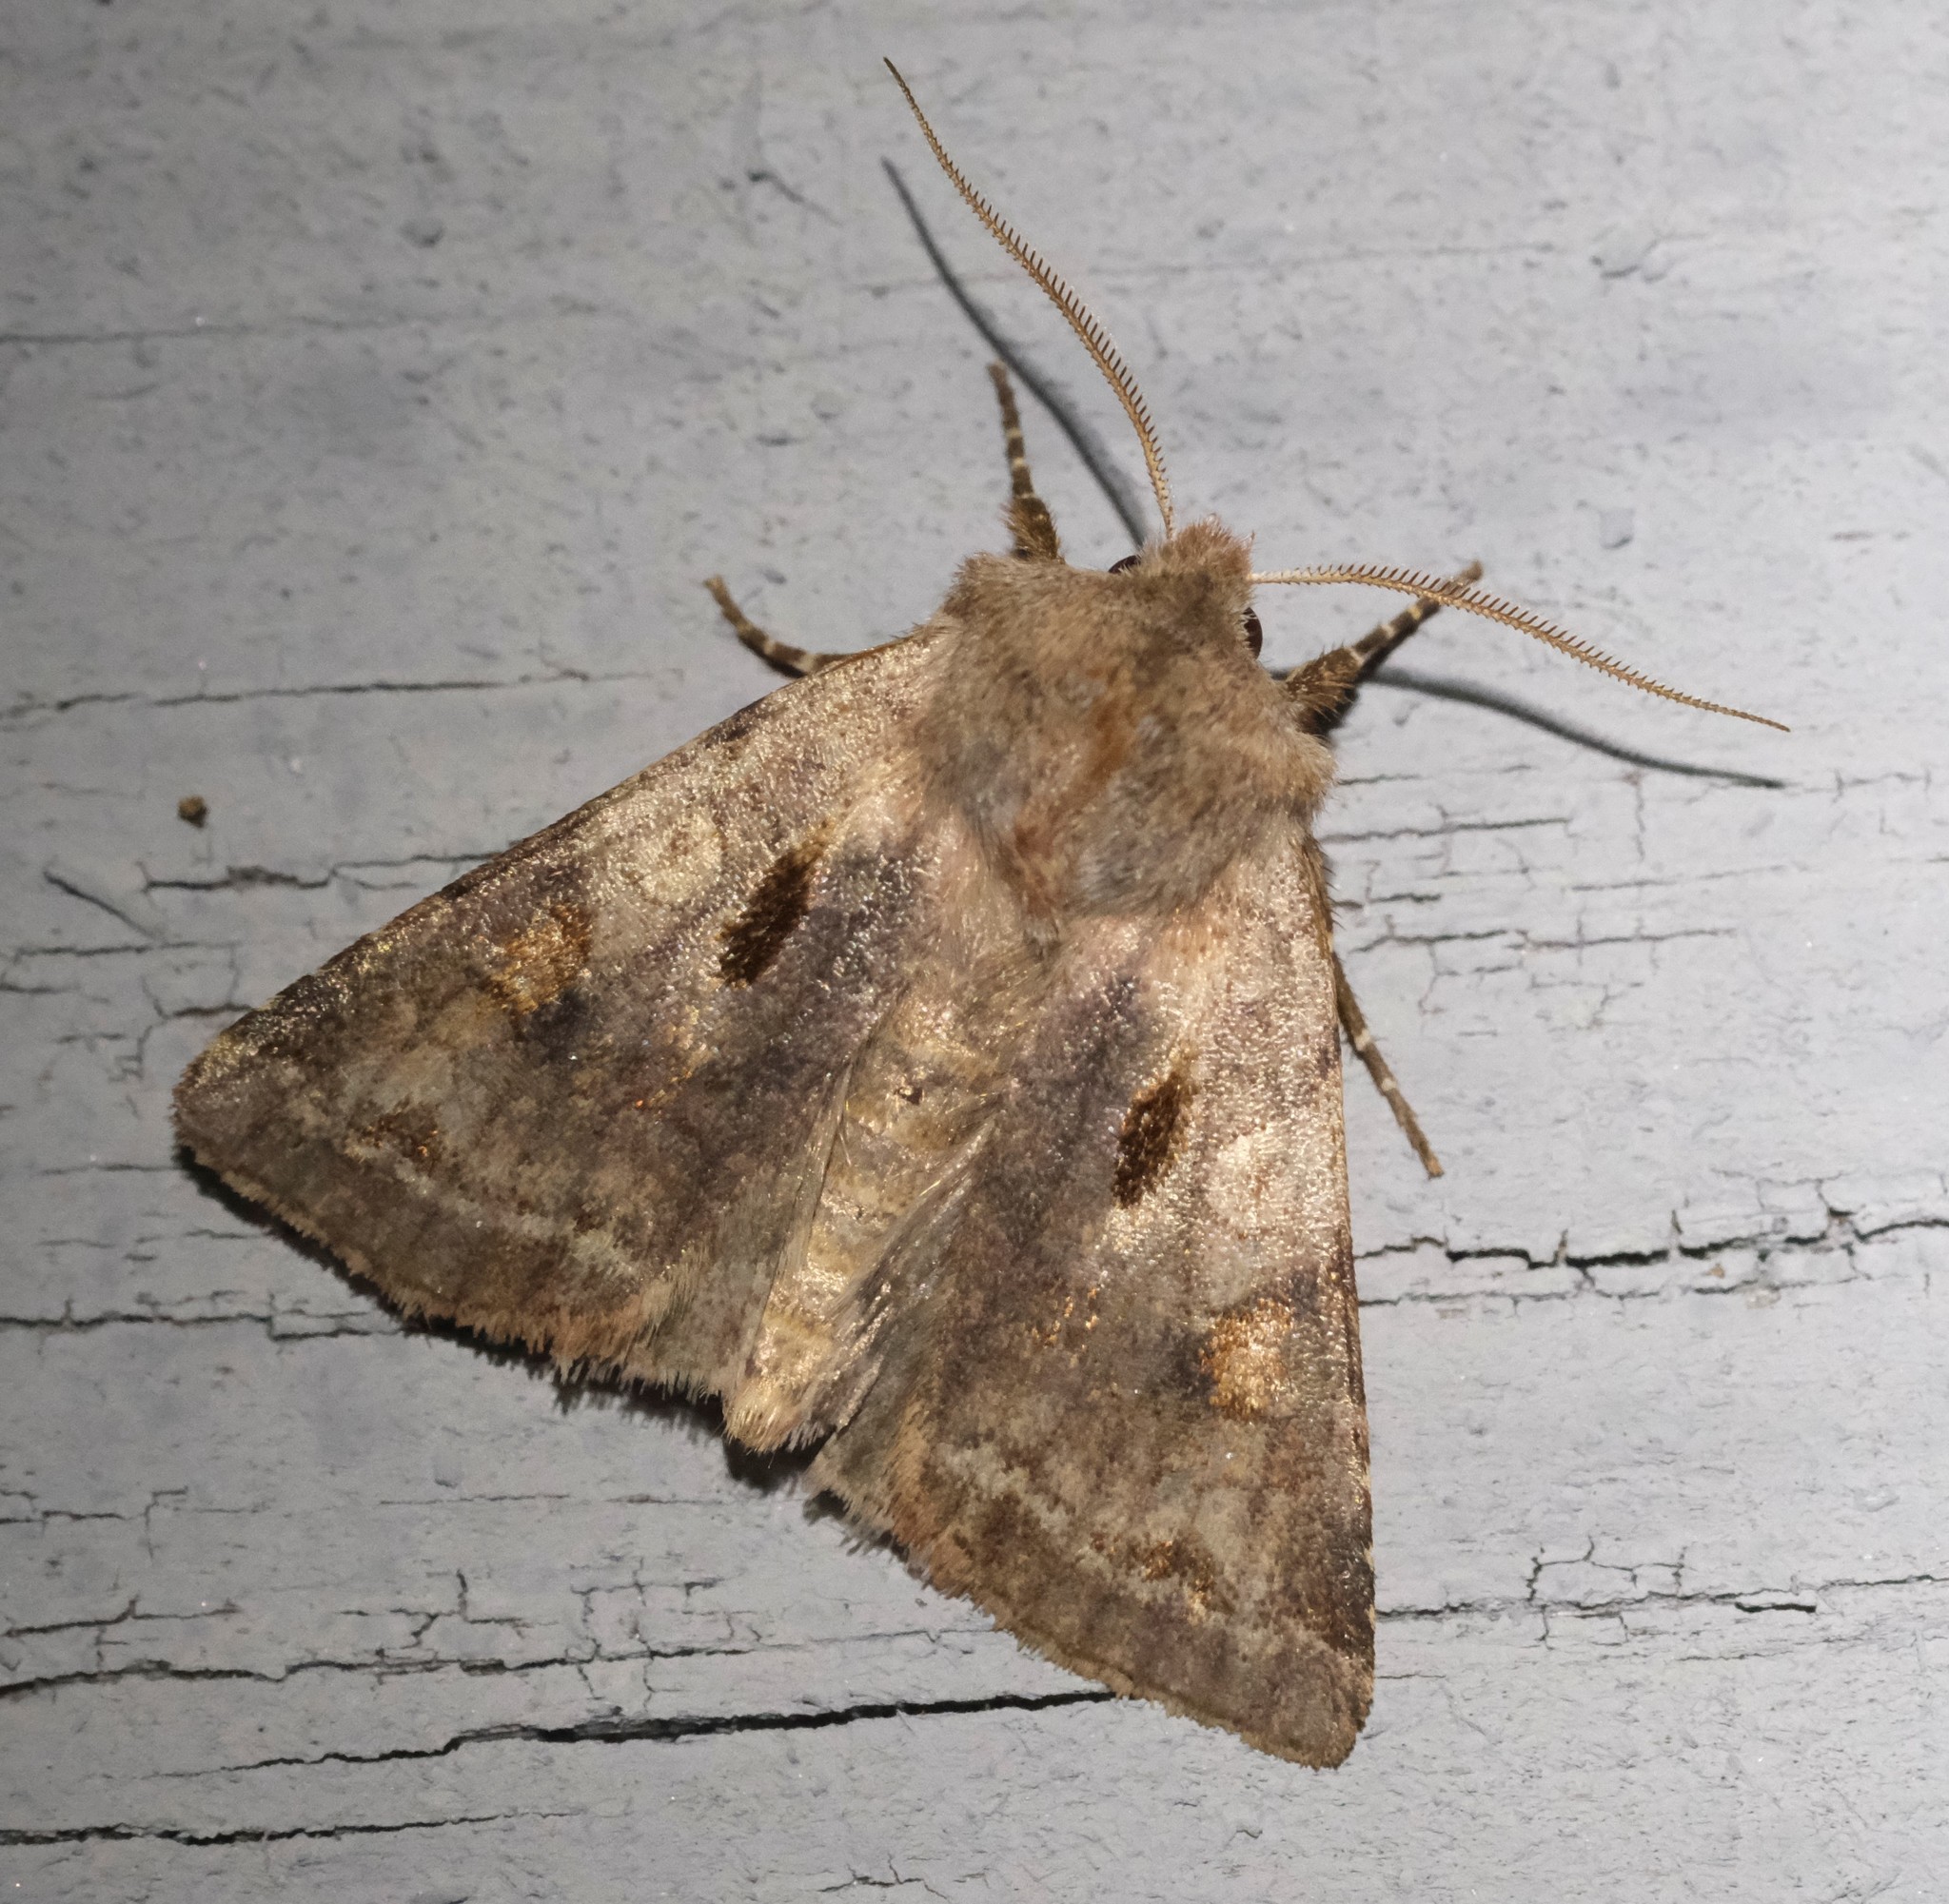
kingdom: Animalia
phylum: Arthropoda
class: Insecta
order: Lepidoptera
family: Noctuidae
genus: Cerastis
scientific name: Cerastis salicarum
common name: Willow dart
